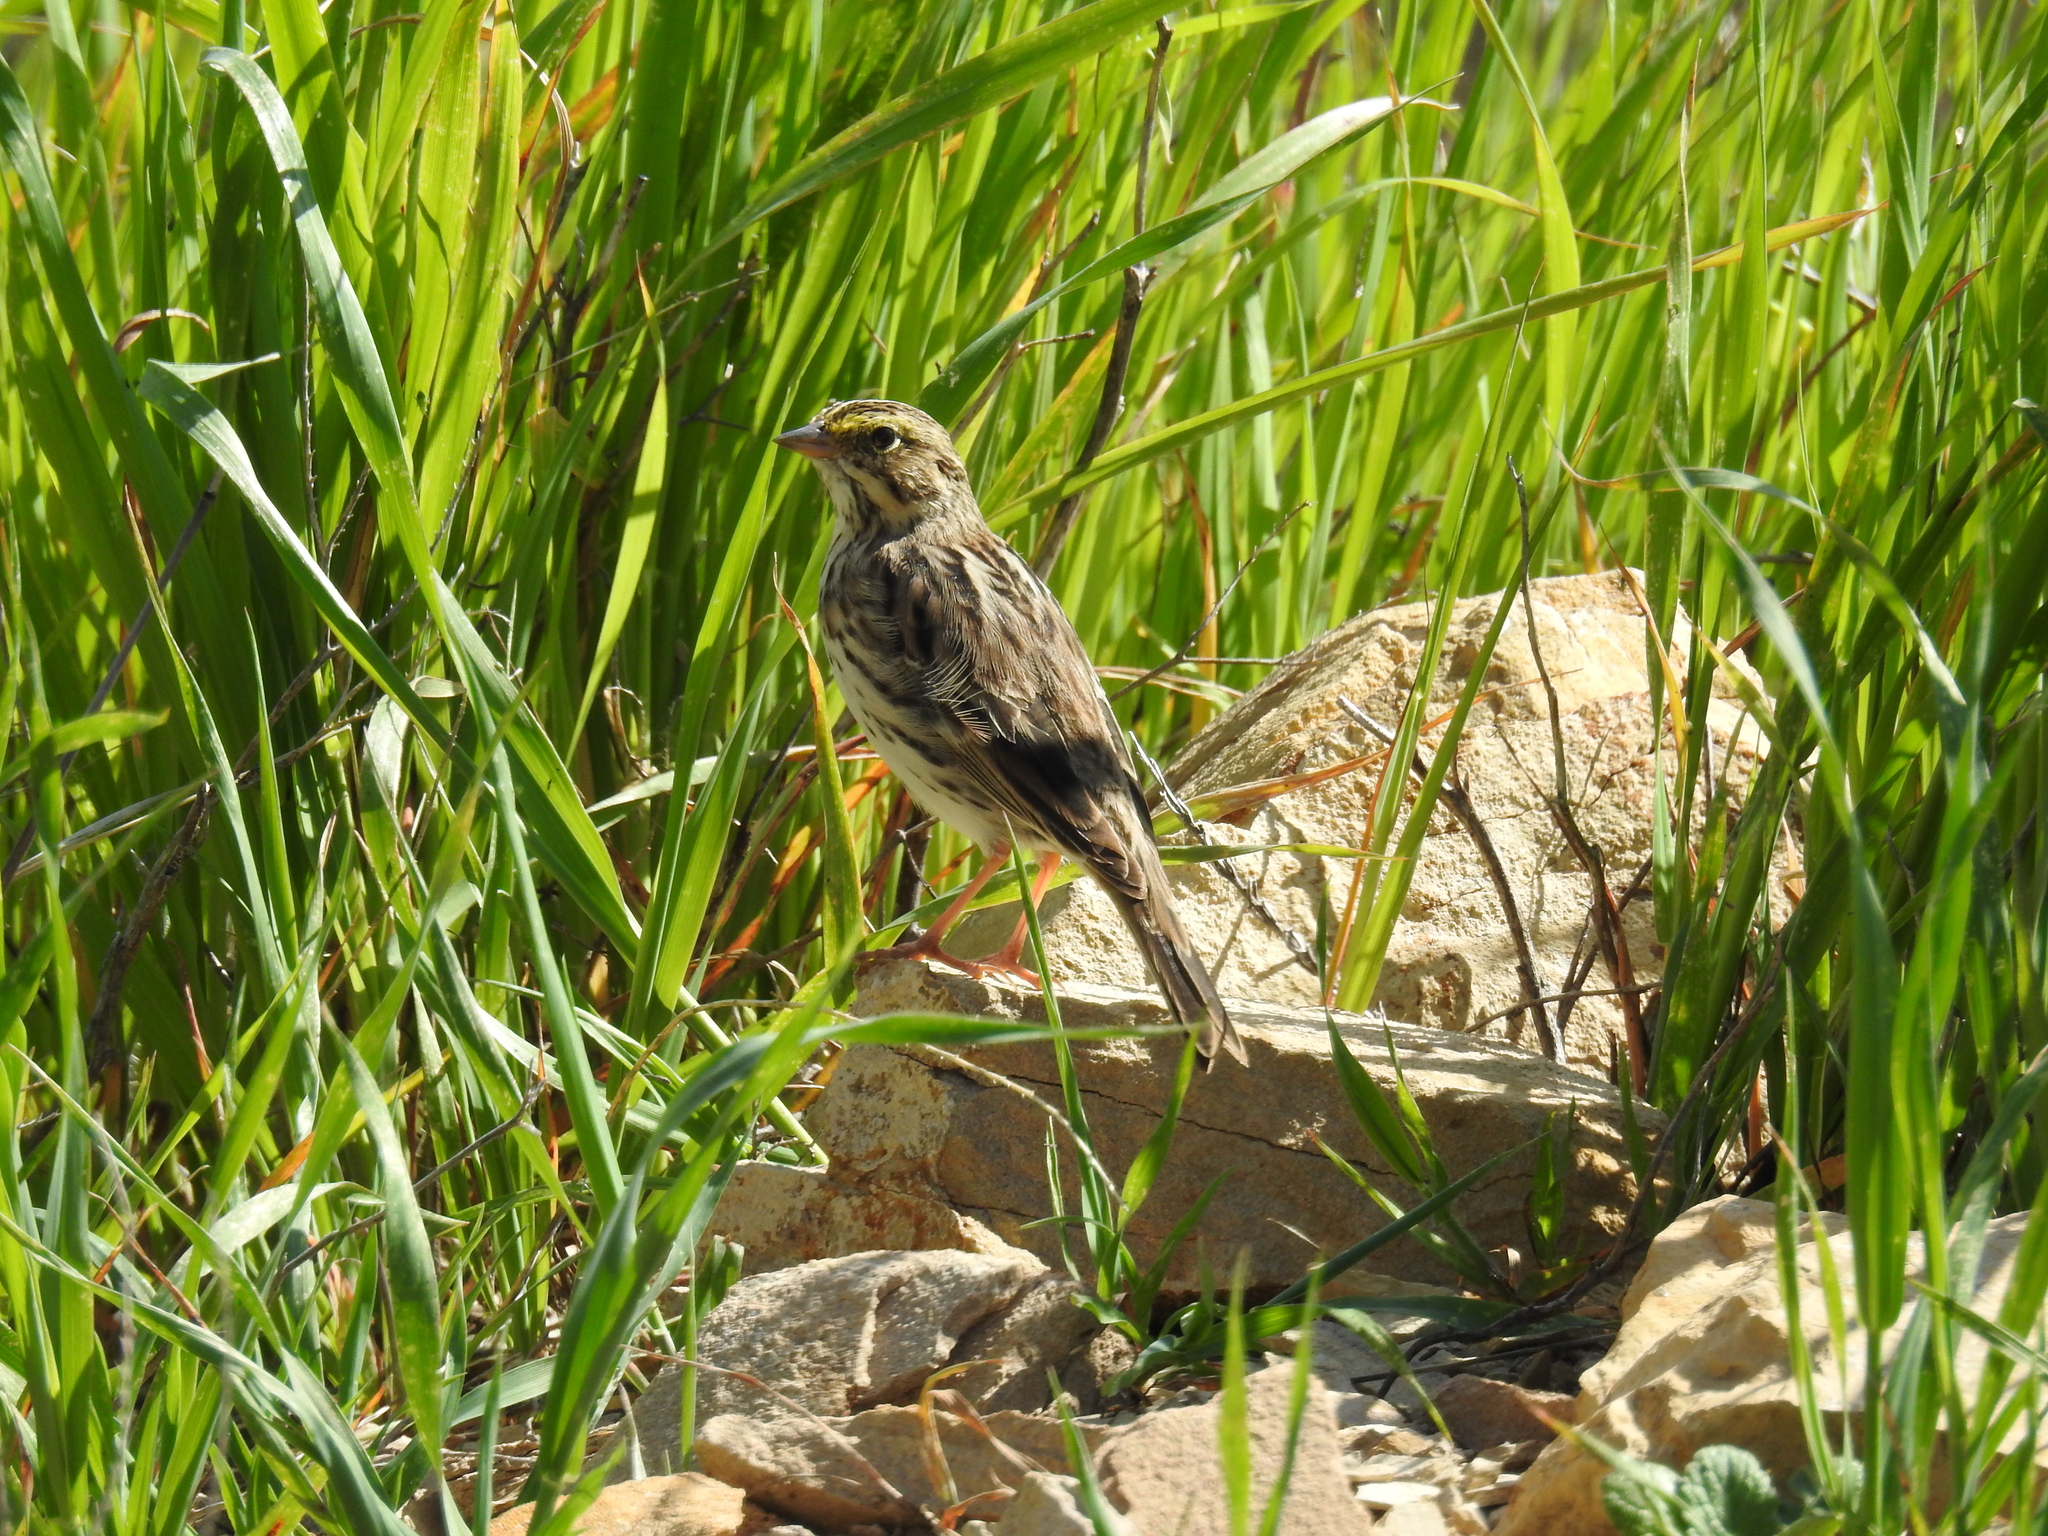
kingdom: Animalia
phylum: Chordata
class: Aves
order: Passeriformes
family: Passerellidae
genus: Passerculus
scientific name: Passerculus sandwichensis
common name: Savannah sparrow
